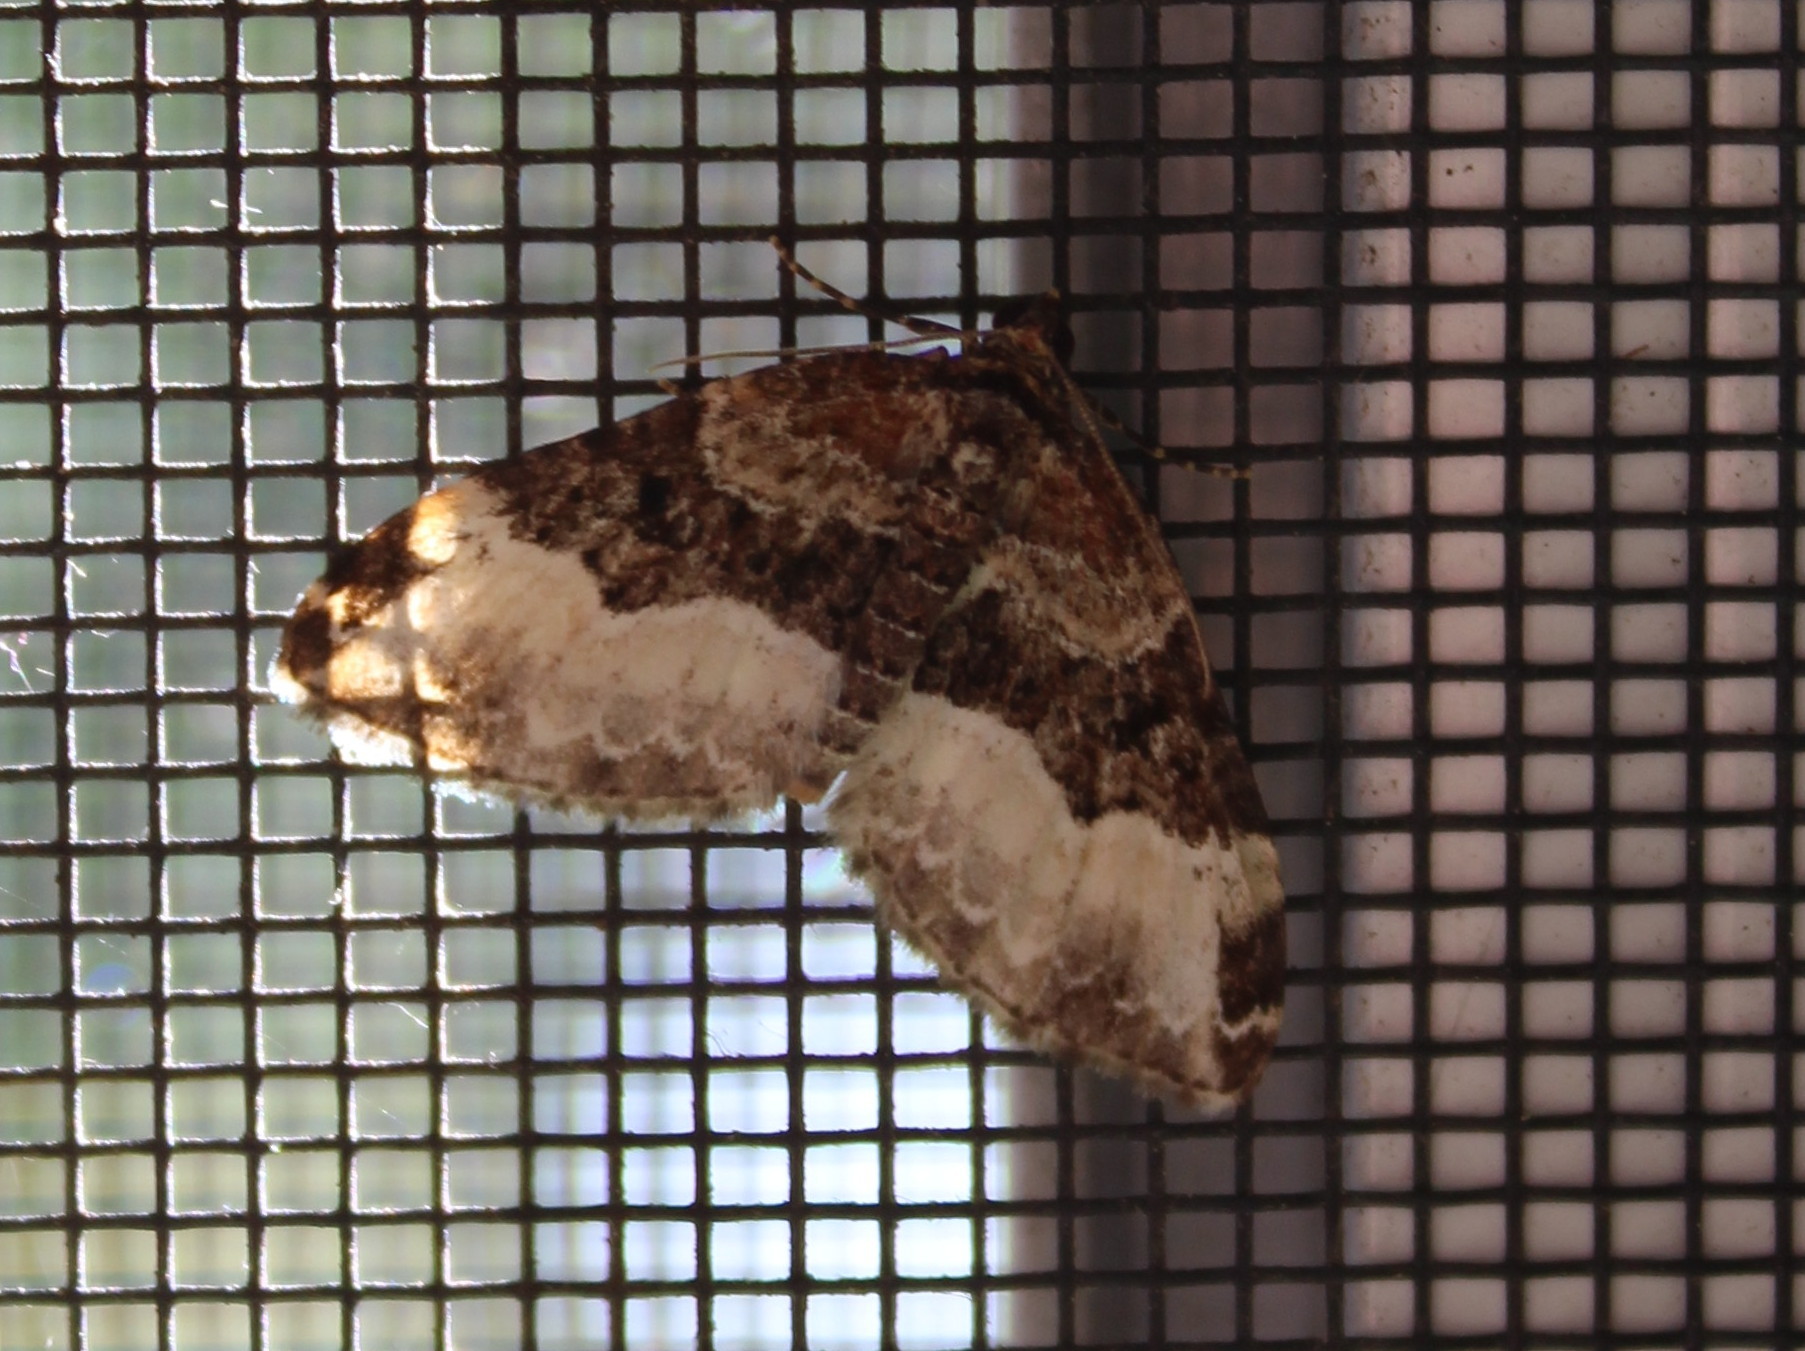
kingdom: Animalia
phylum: Arthropoda
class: Insecta
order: Lepidoptera
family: Geometridae
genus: Euphyia
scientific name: Euphyia intermediata
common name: Sharp-angled carpet
